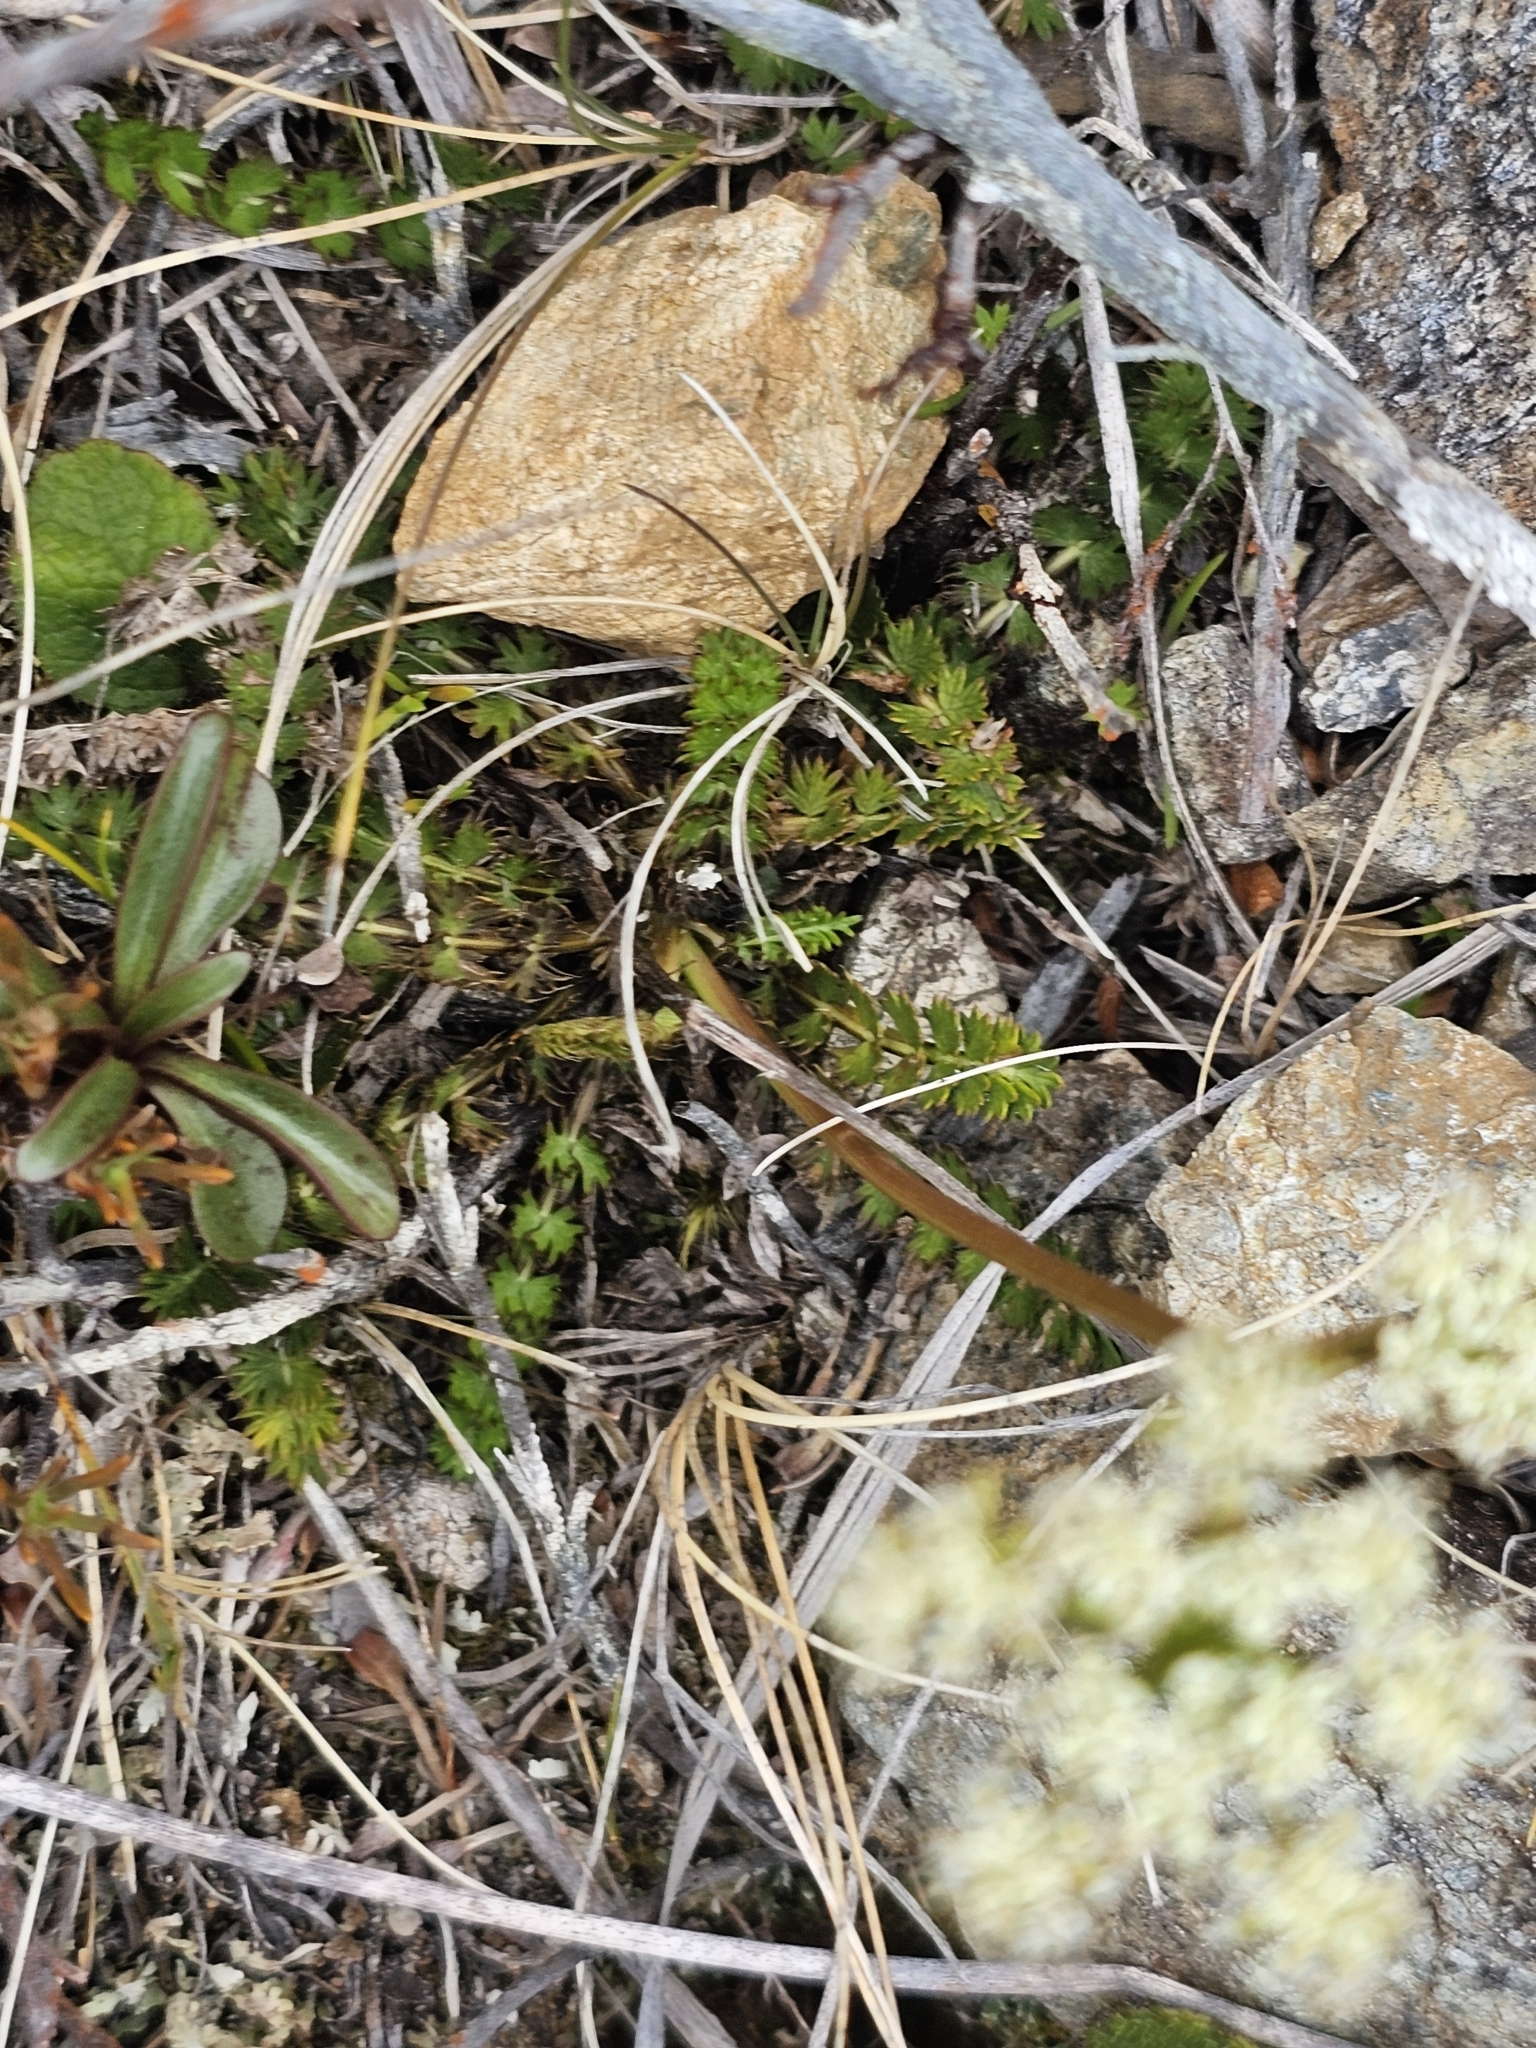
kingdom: Plantae
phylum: Tracheophyta
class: Magnoliopsida
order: Apiales
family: Apiaceae
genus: Anisotome
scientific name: Anisotome aromatica
